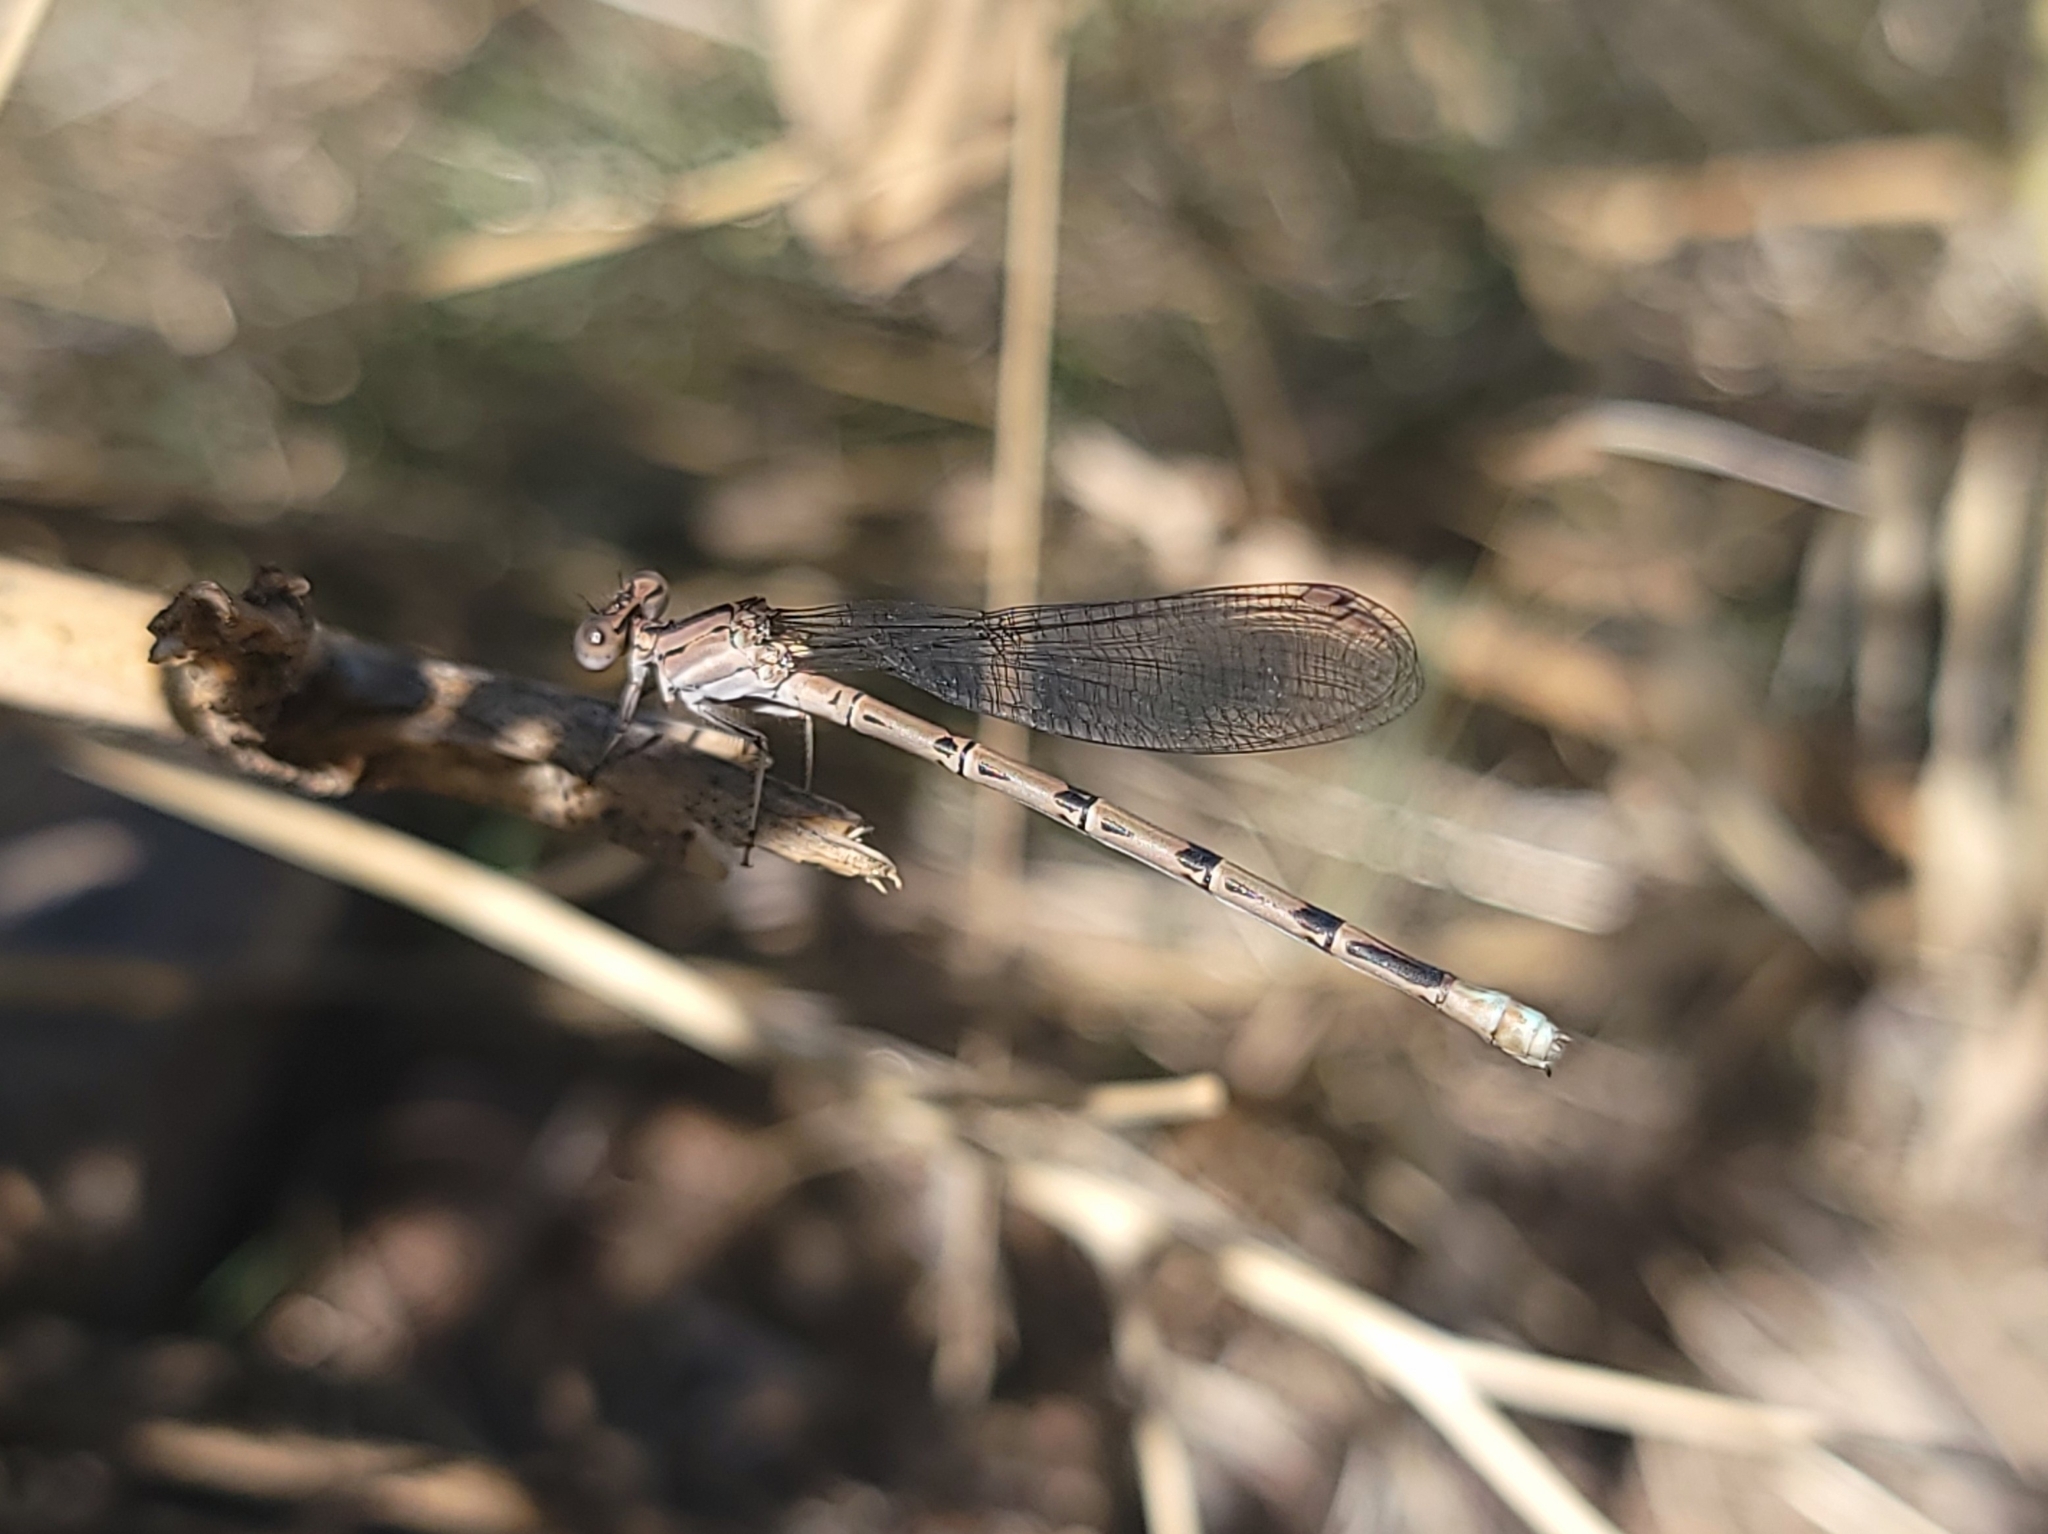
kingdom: Animalia
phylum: Arthropoda
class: Insecta
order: Odonata
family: Coenagrionidae
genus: Argia
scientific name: Argia vivida
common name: Vivid dancer
